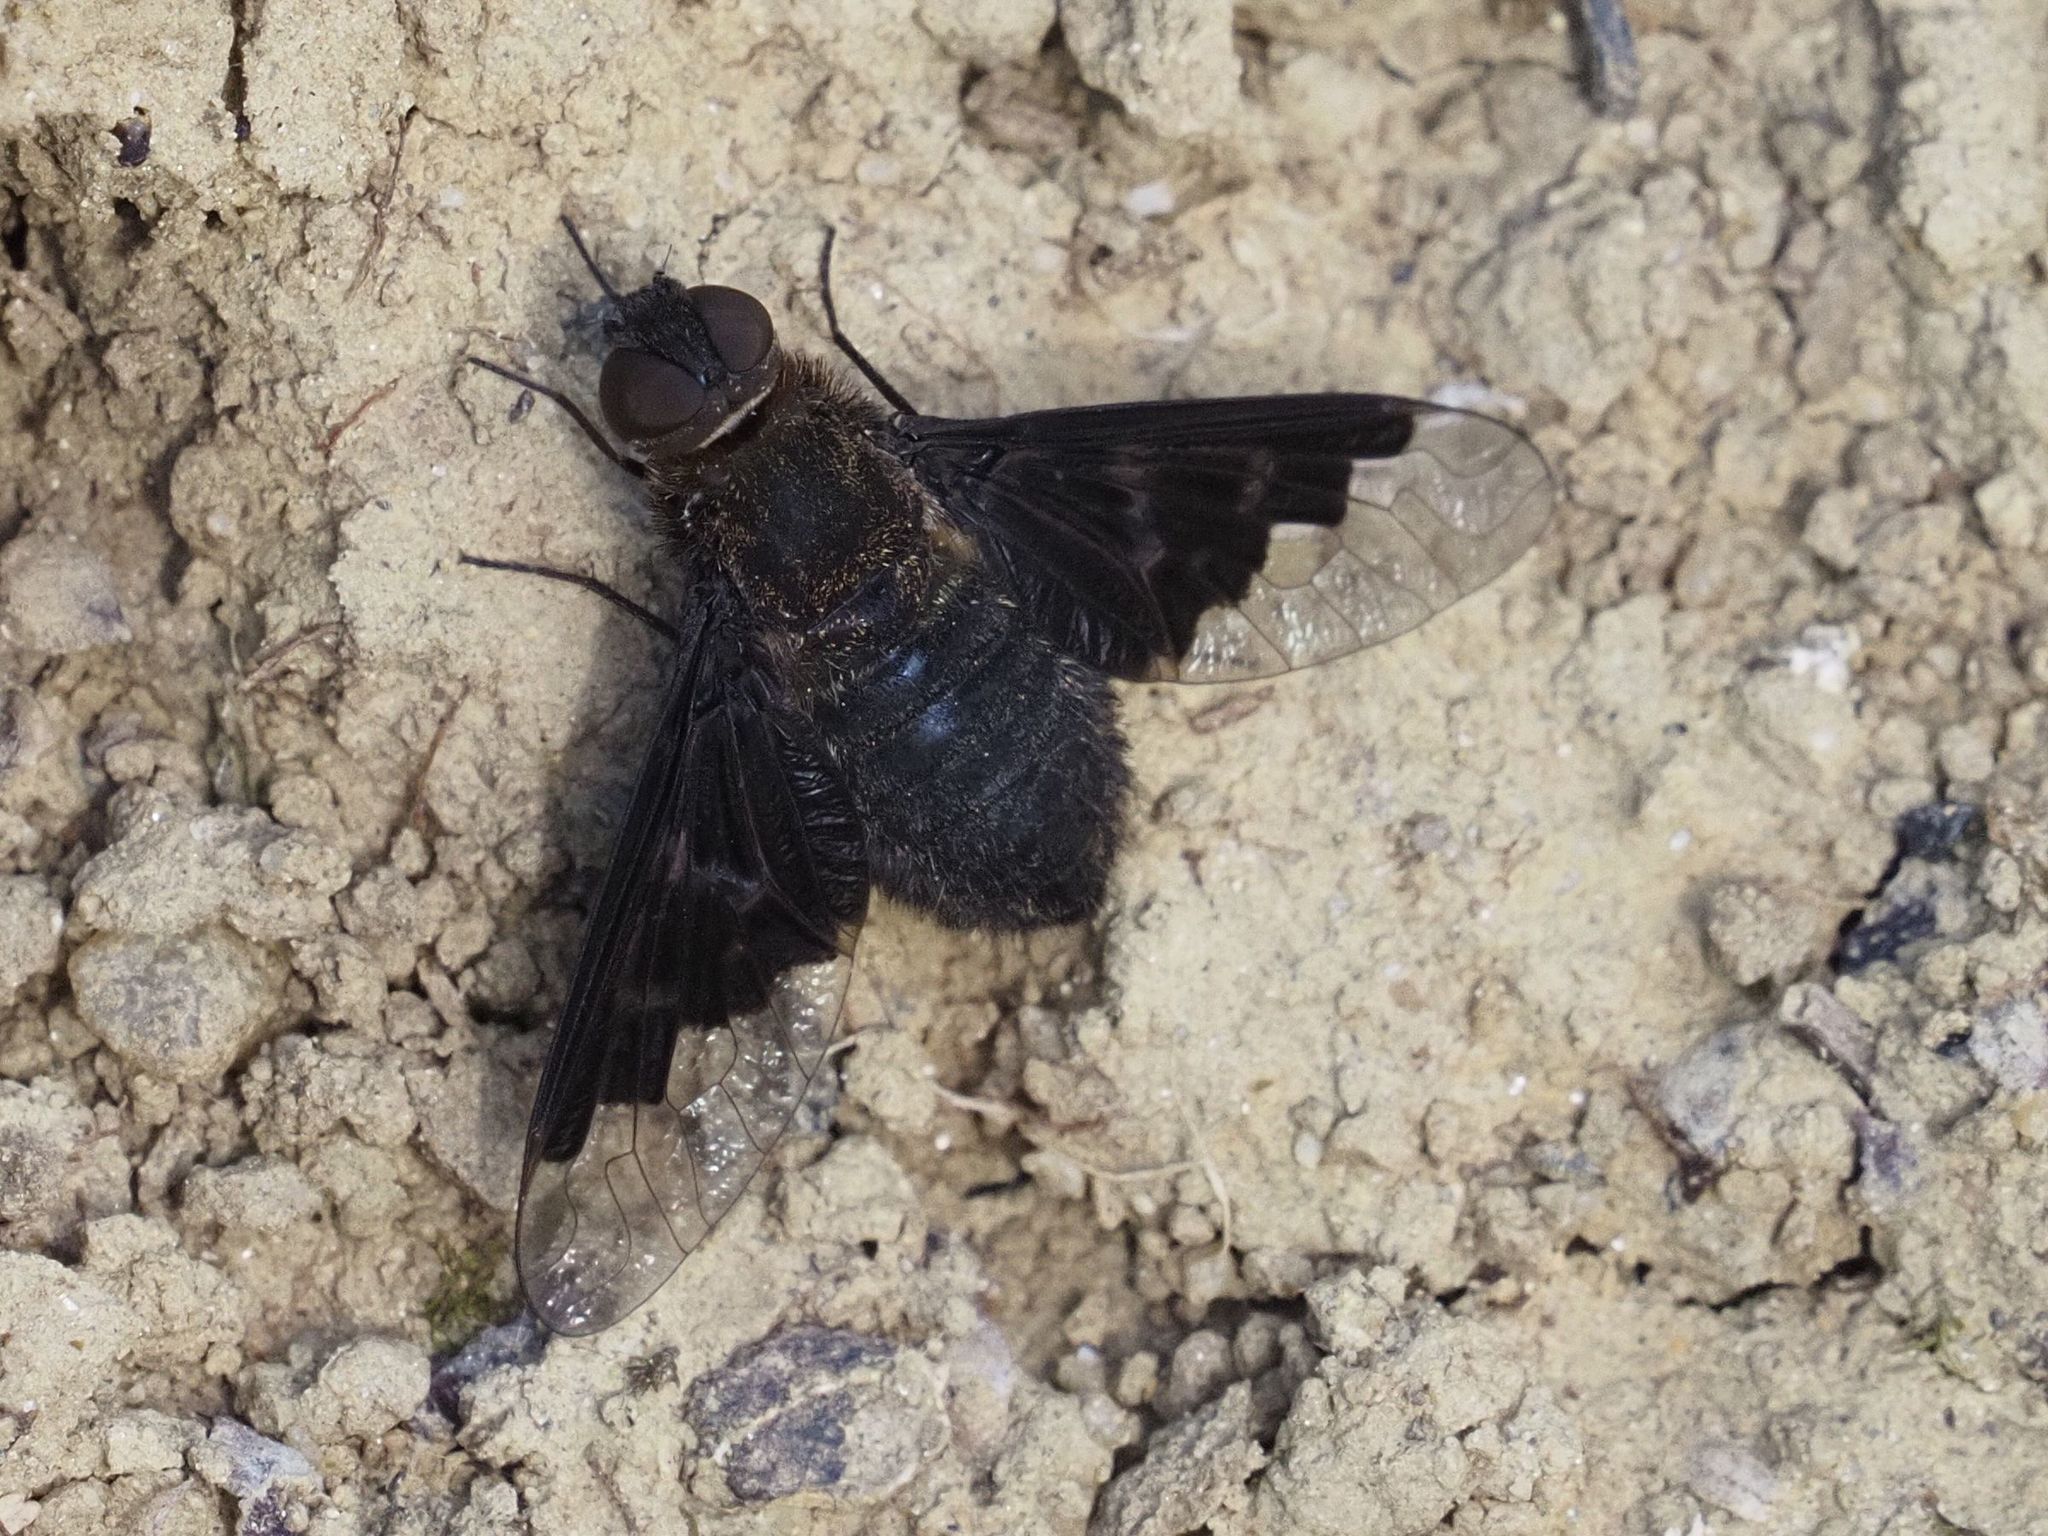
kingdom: Animalia
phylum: Arthropoda
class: Insecta
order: Diptera
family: Bombyliidae
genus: Hemipenthes
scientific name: Hemipenthes morio
